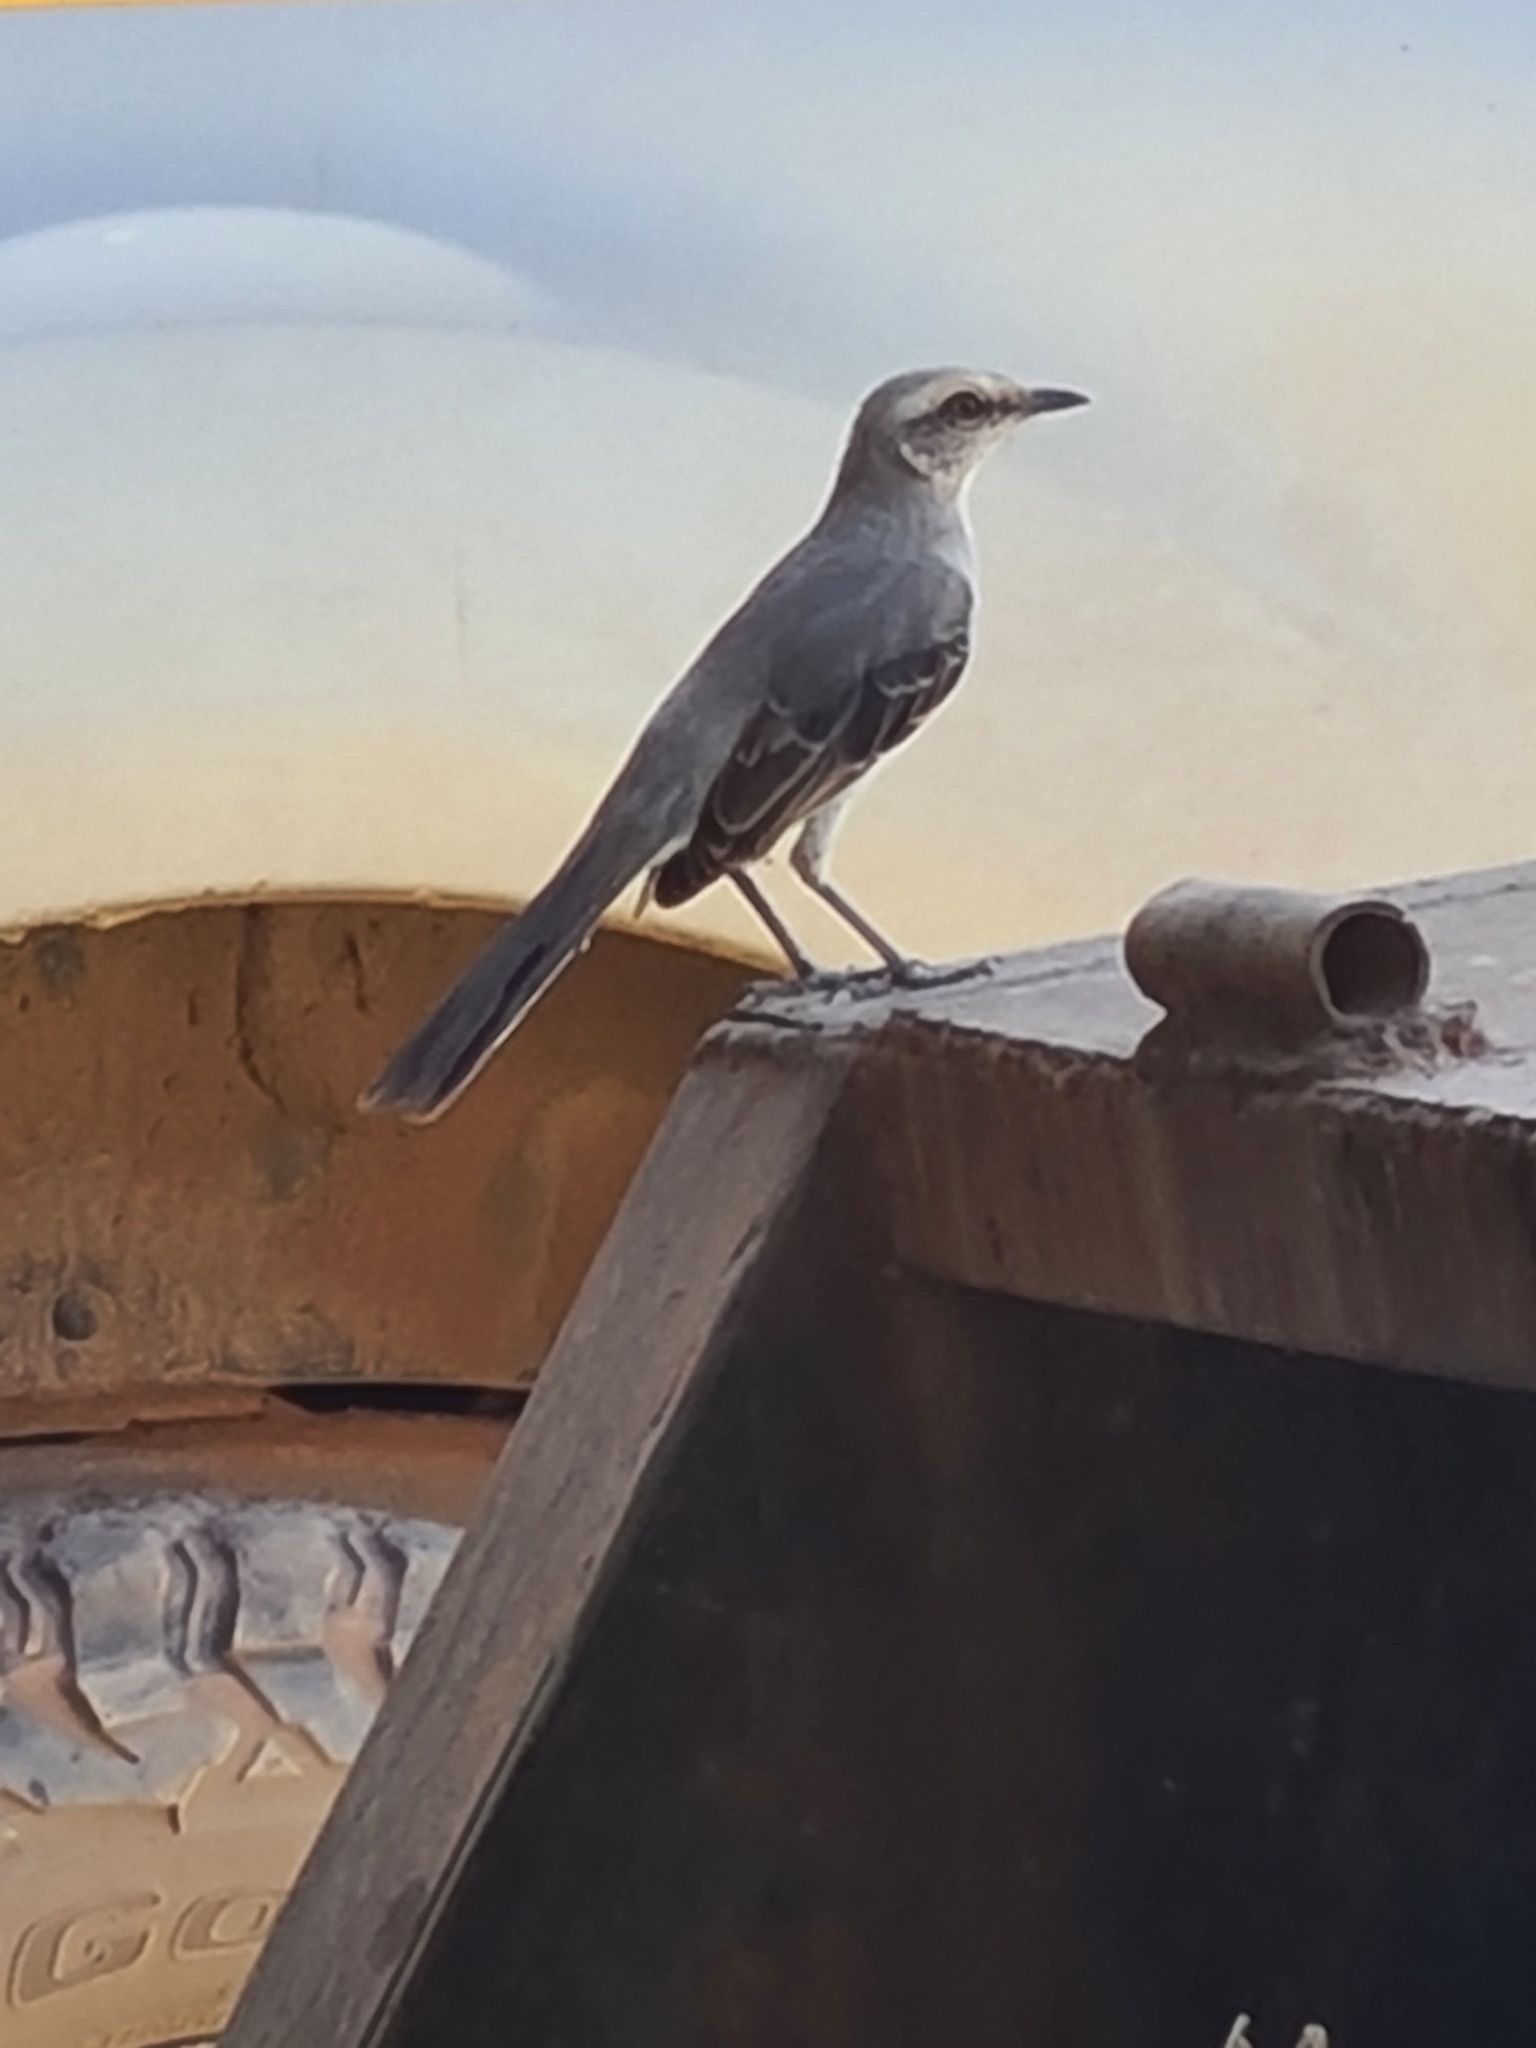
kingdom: Animalia
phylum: Chordata
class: Aves
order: Passeriformes
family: Mimidae
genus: Mimus
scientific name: Mimus gilvus
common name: Tropical mockingbird
